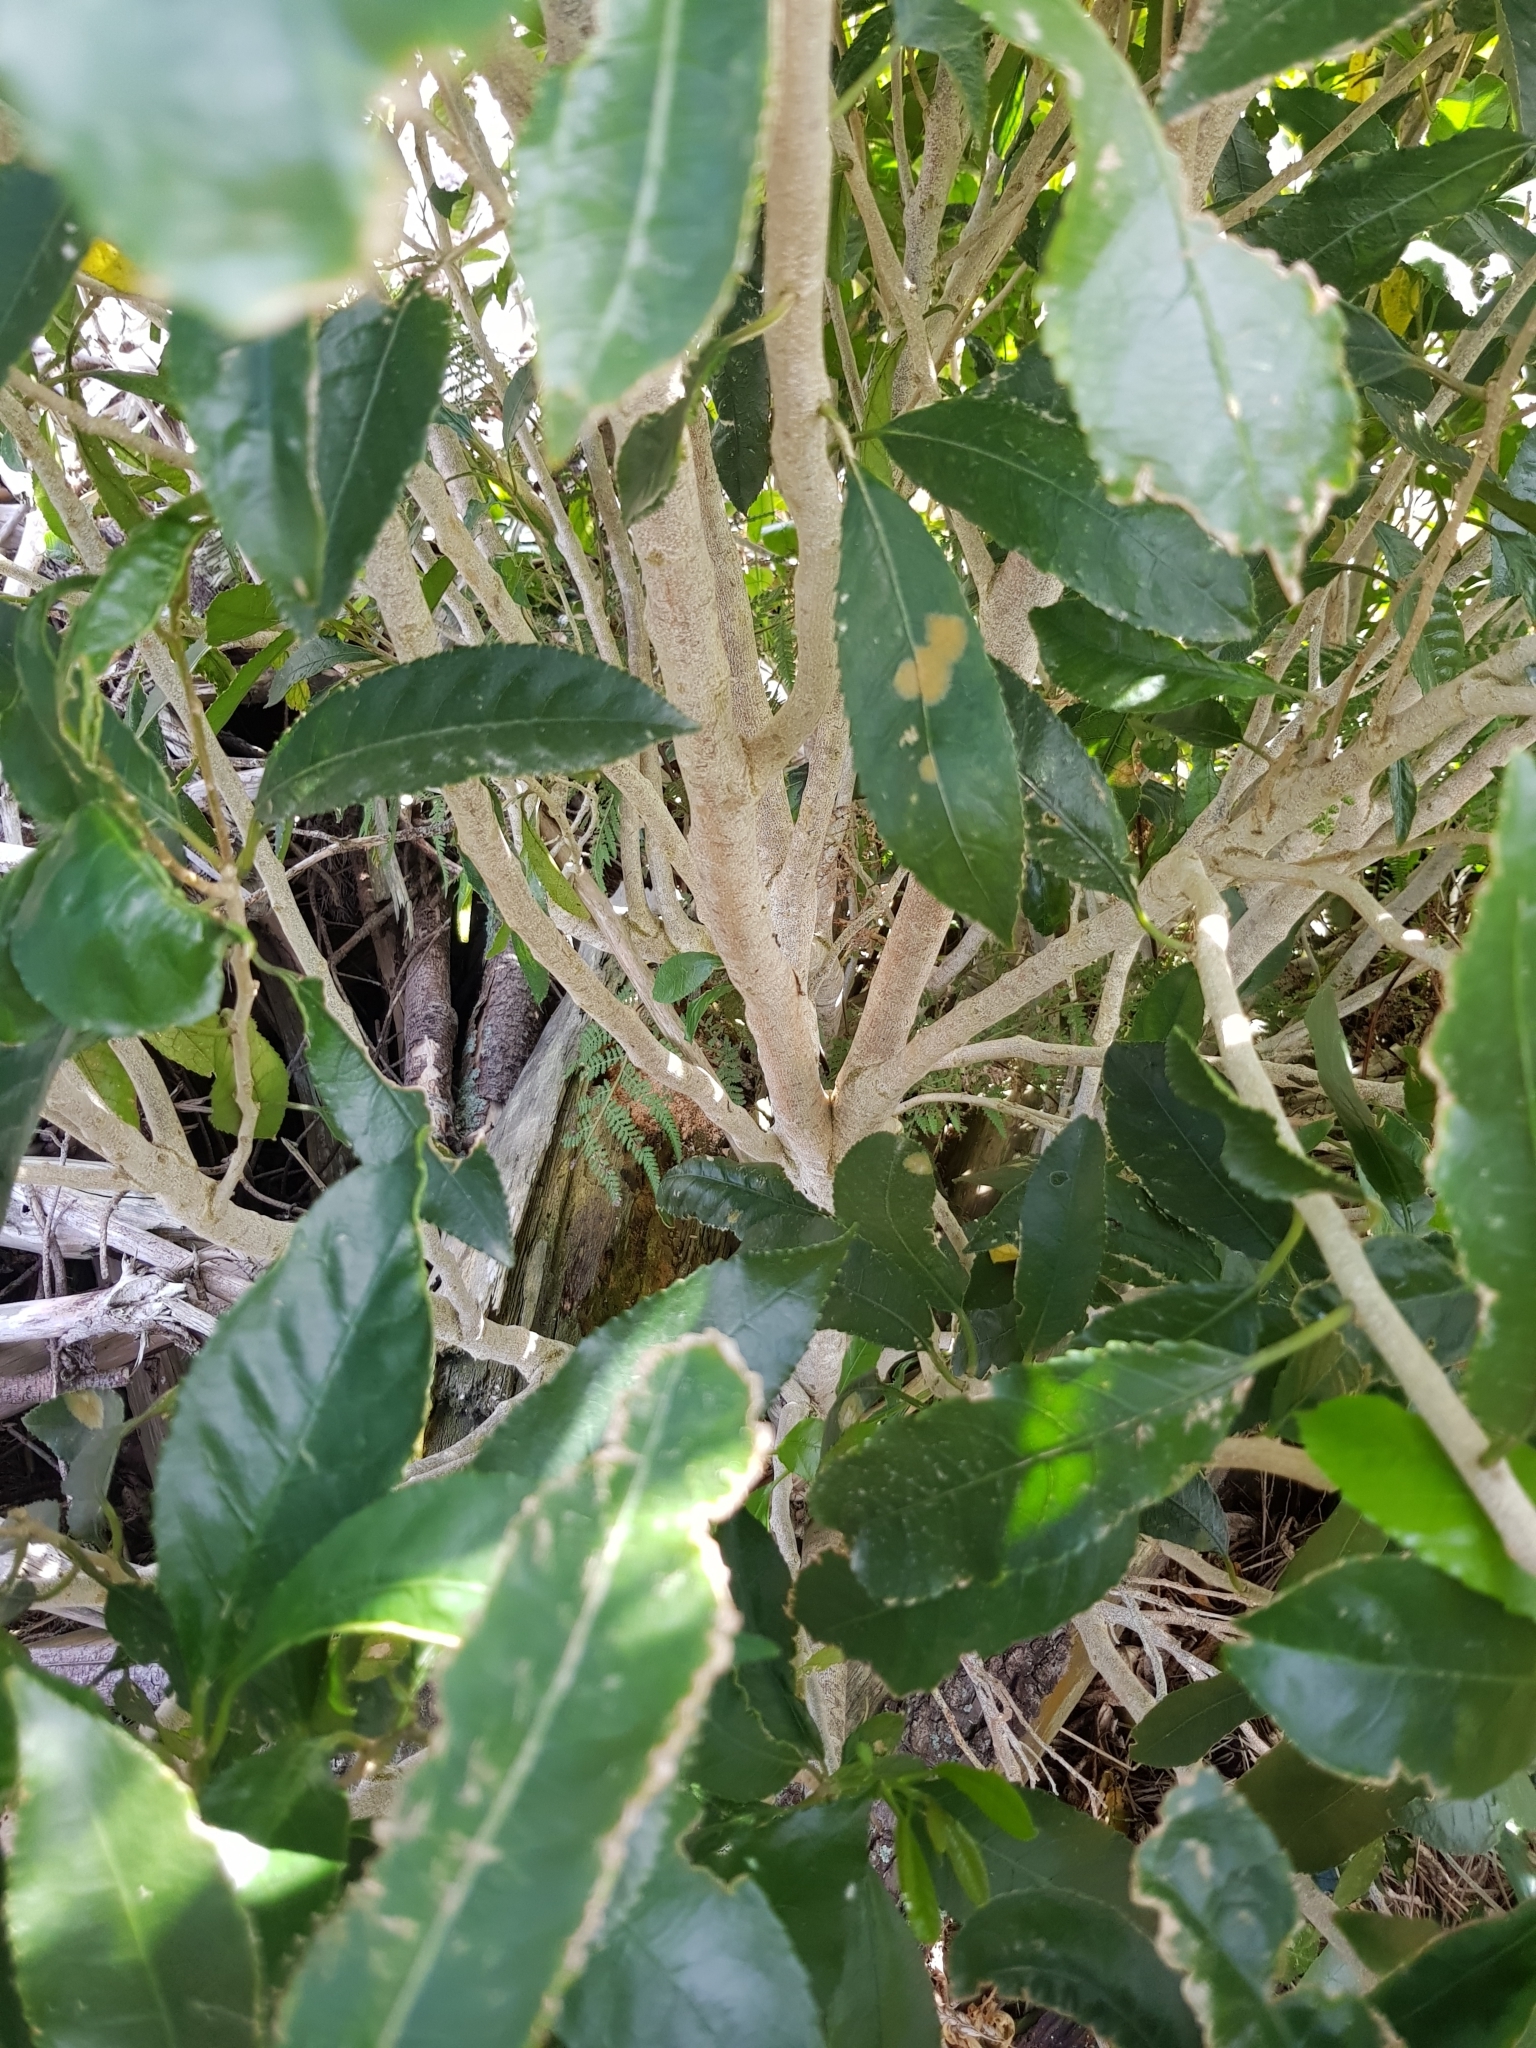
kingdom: Plantae
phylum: Tracheophyta
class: Magnoliopsida
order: Malpighiales
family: Violaceae
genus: Melicytus
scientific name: Melicytus ramiflorus
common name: Mahoe
